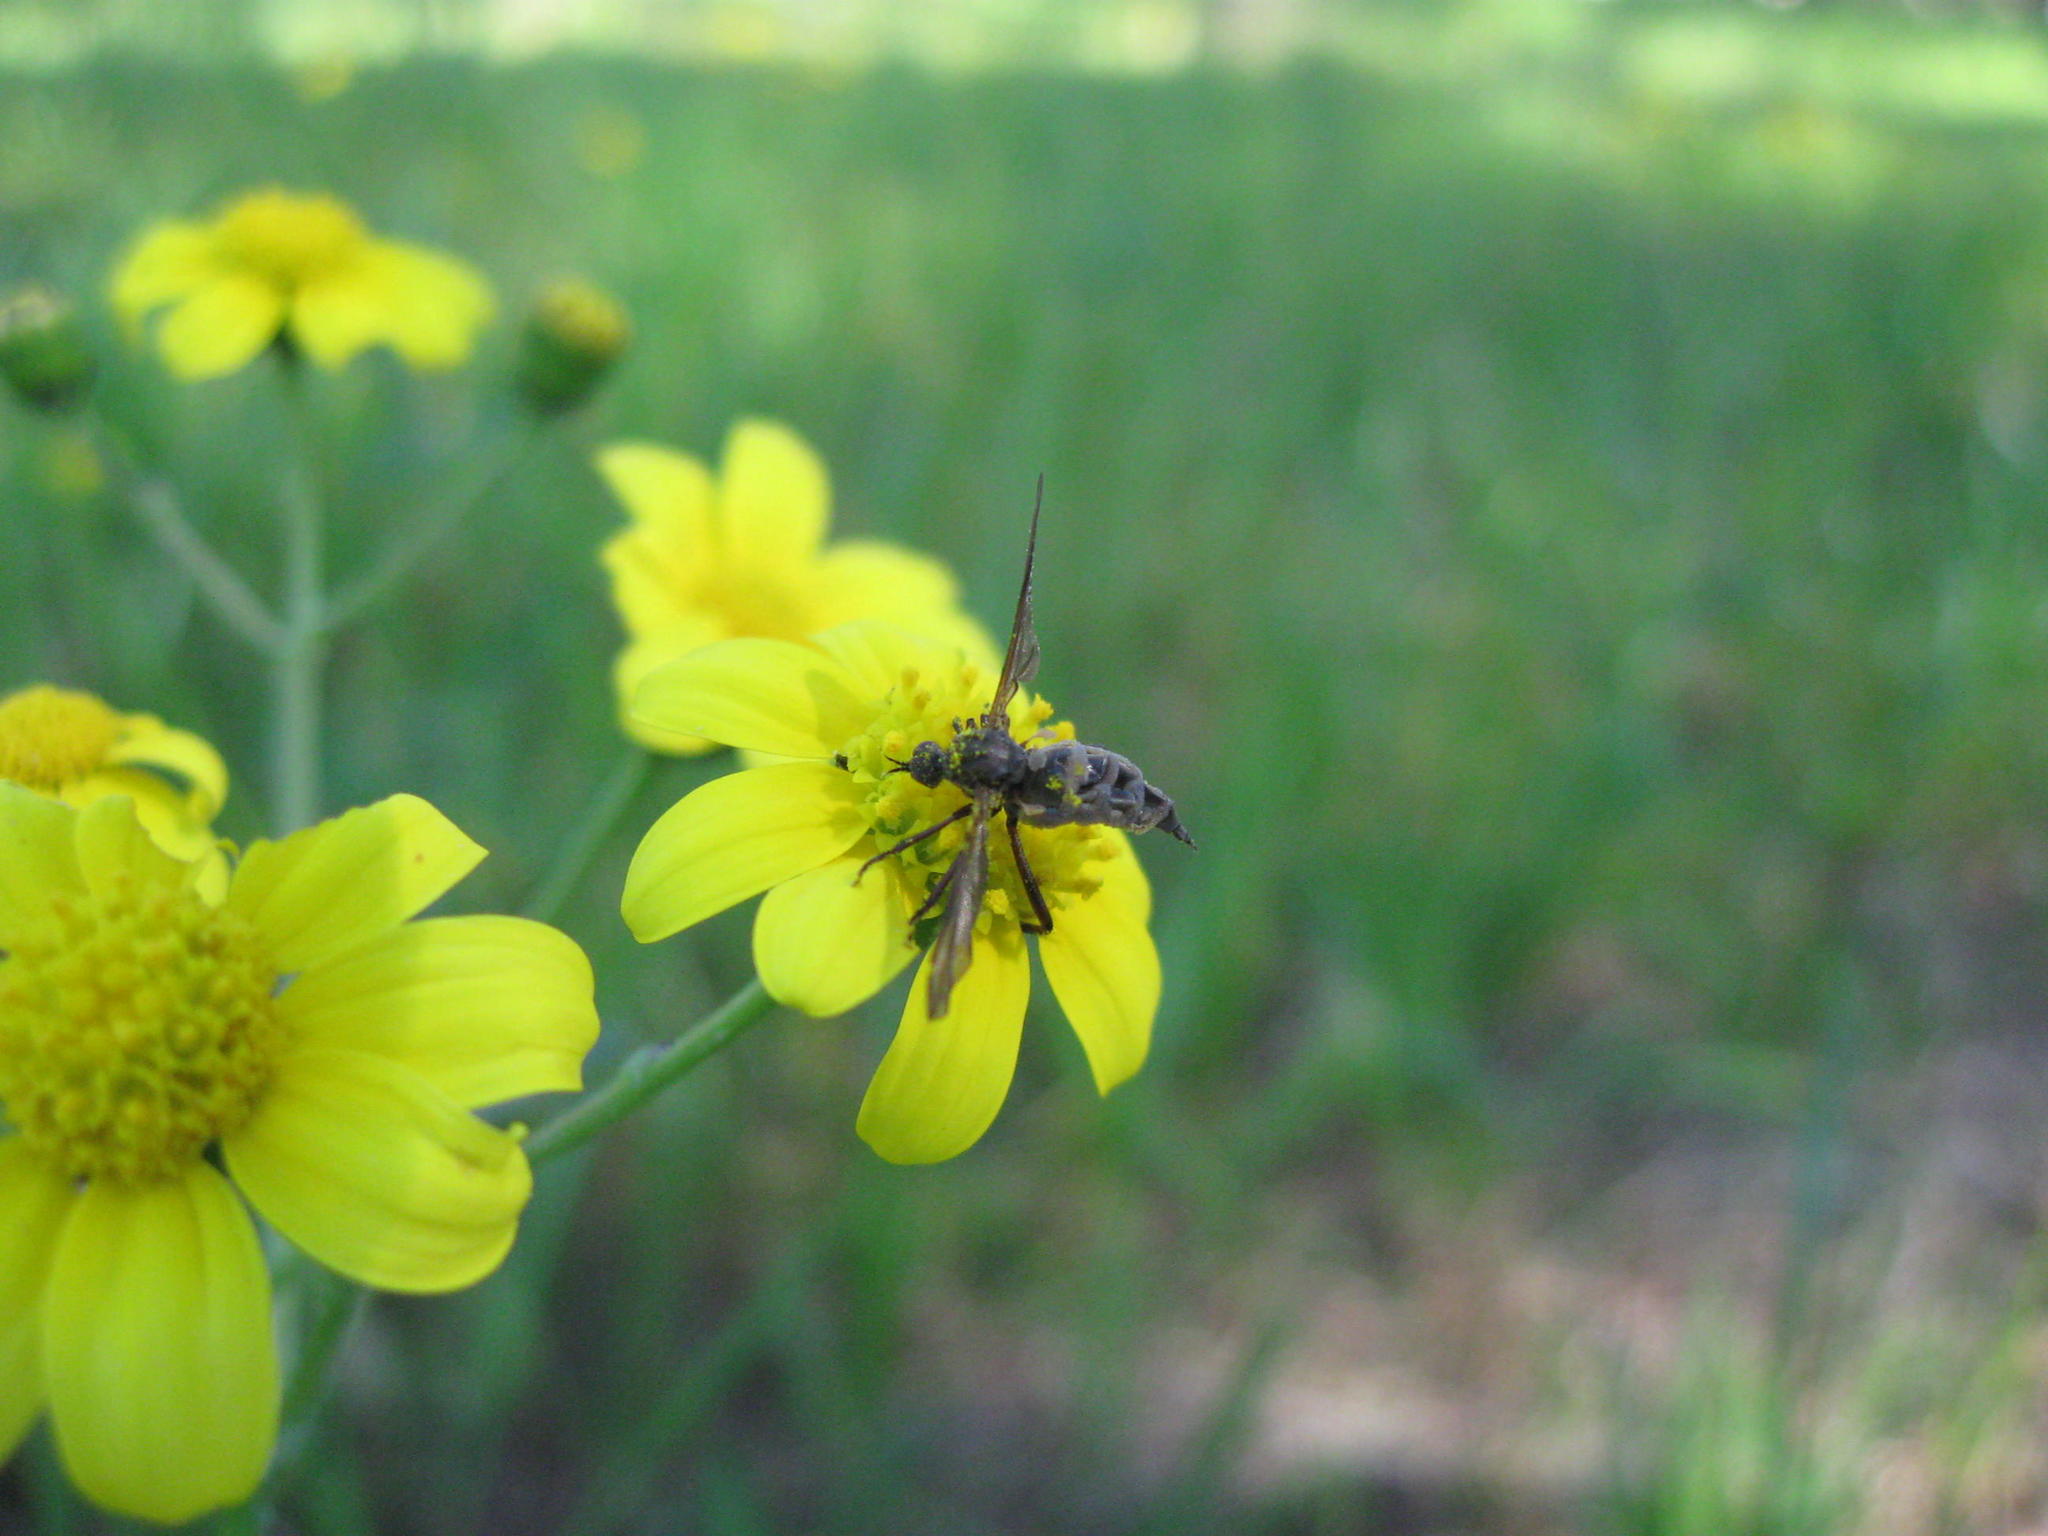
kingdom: Plantae
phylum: Tracheophyta
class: Magnoliopsida
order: Asterales
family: Asteraceae
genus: Senecio
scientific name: Senecio littoreus
